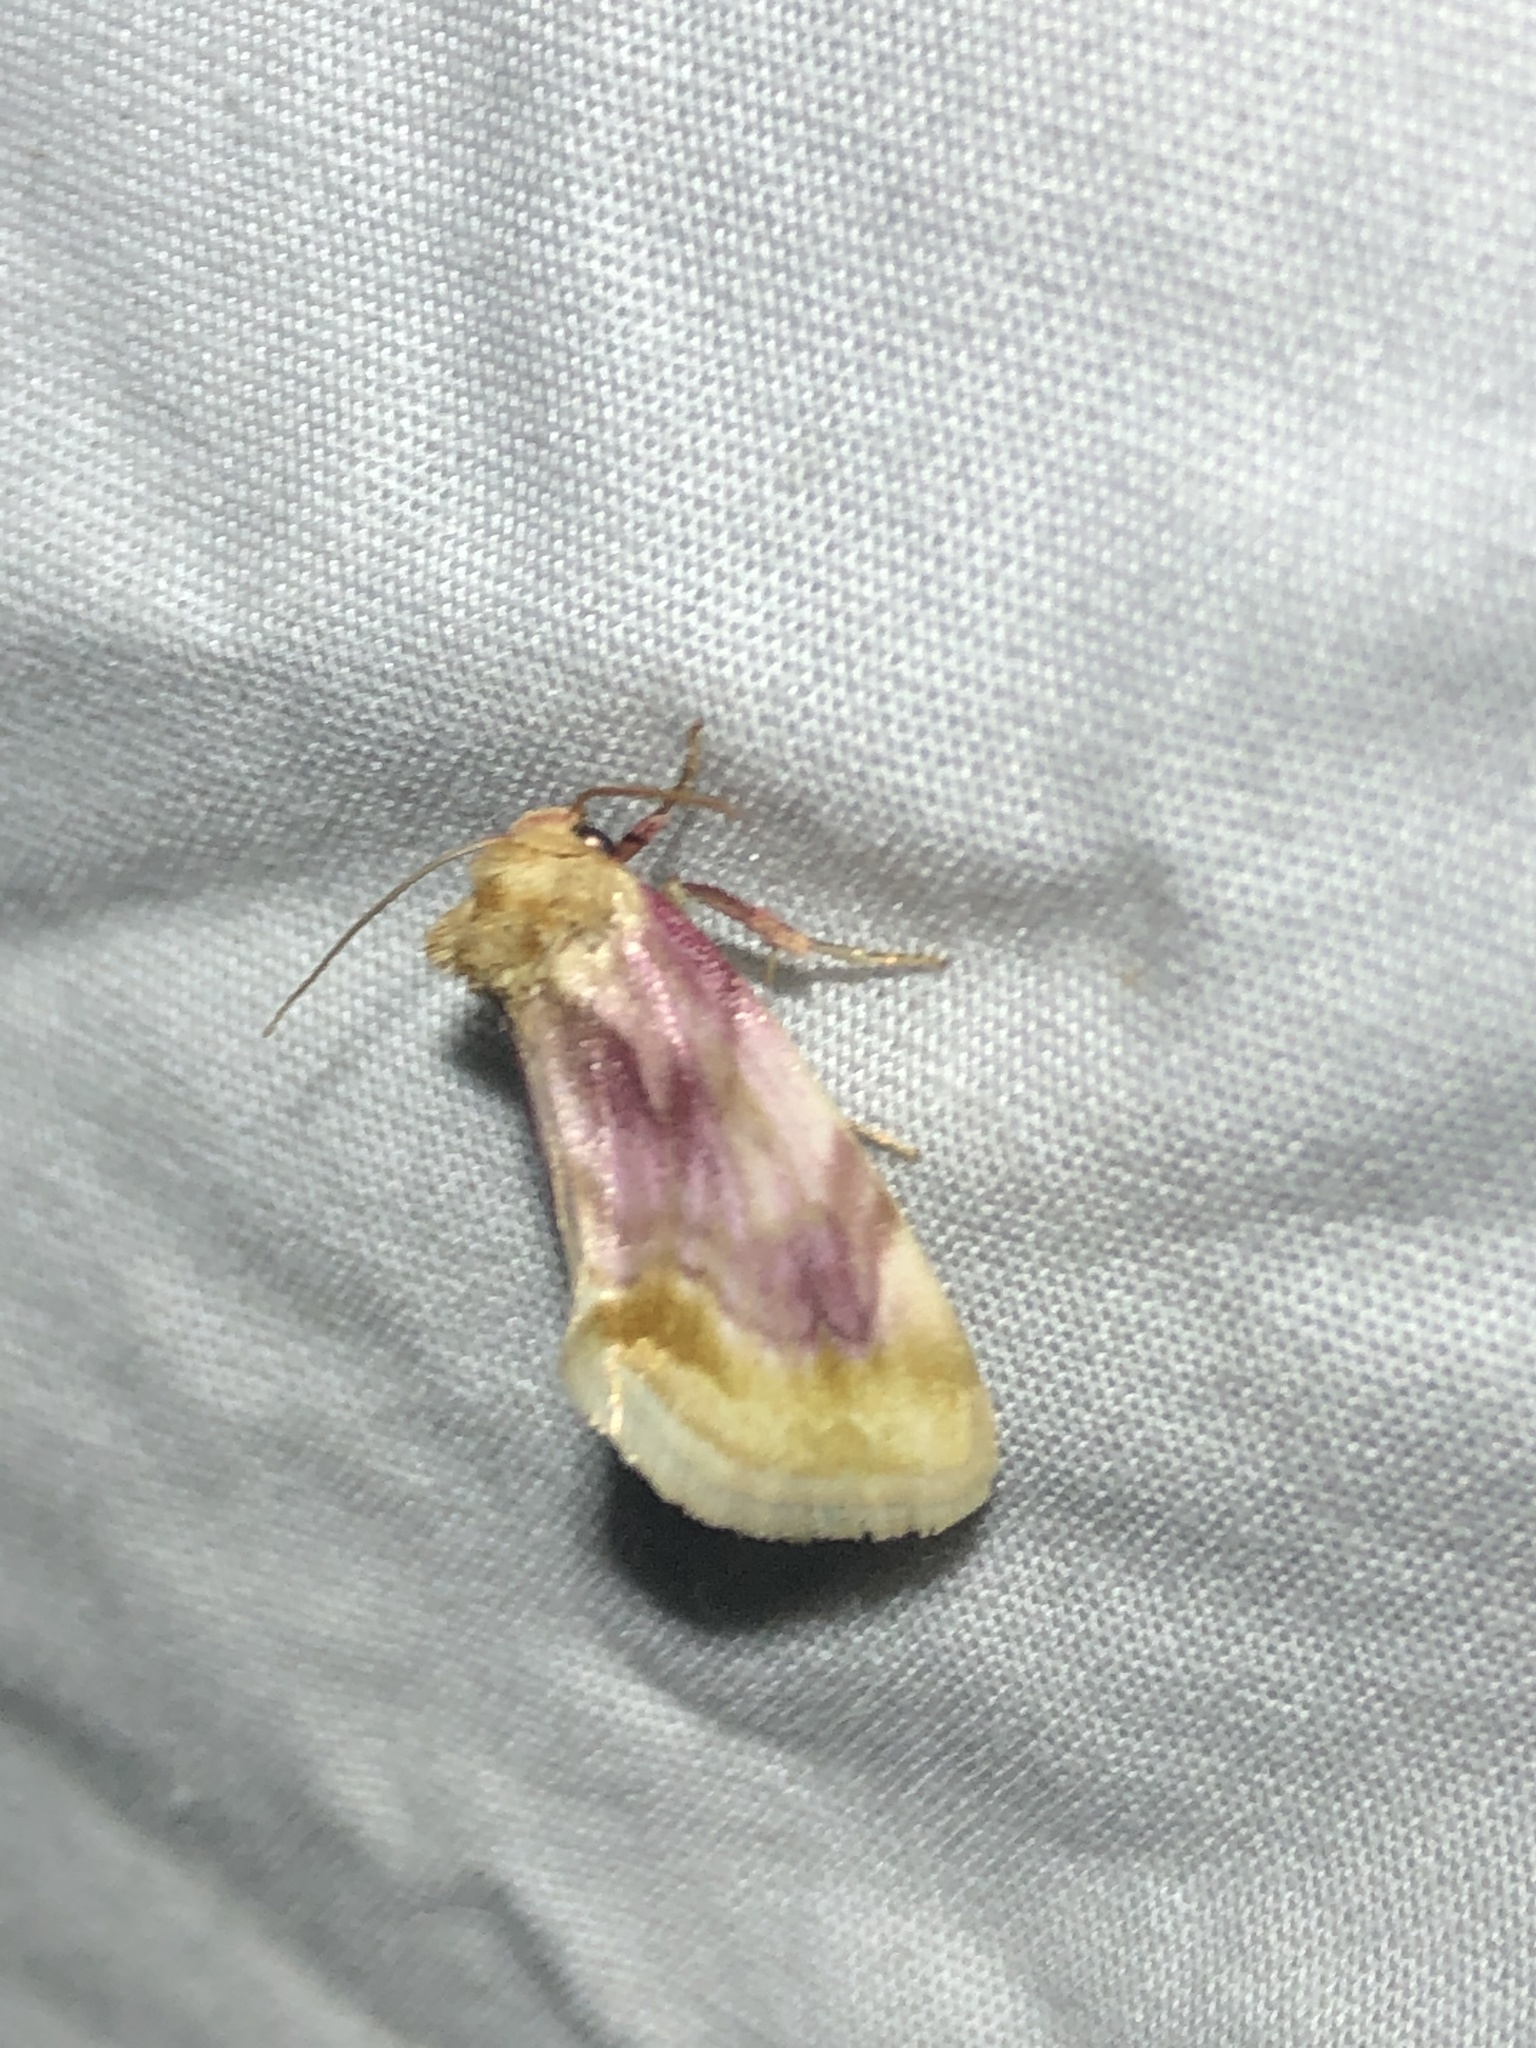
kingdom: Animalia
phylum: Arthropoda
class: Insecta
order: Lepidoptera
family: Noctuidae
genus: Chamaeclea
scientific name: Chamaeclea pernana
